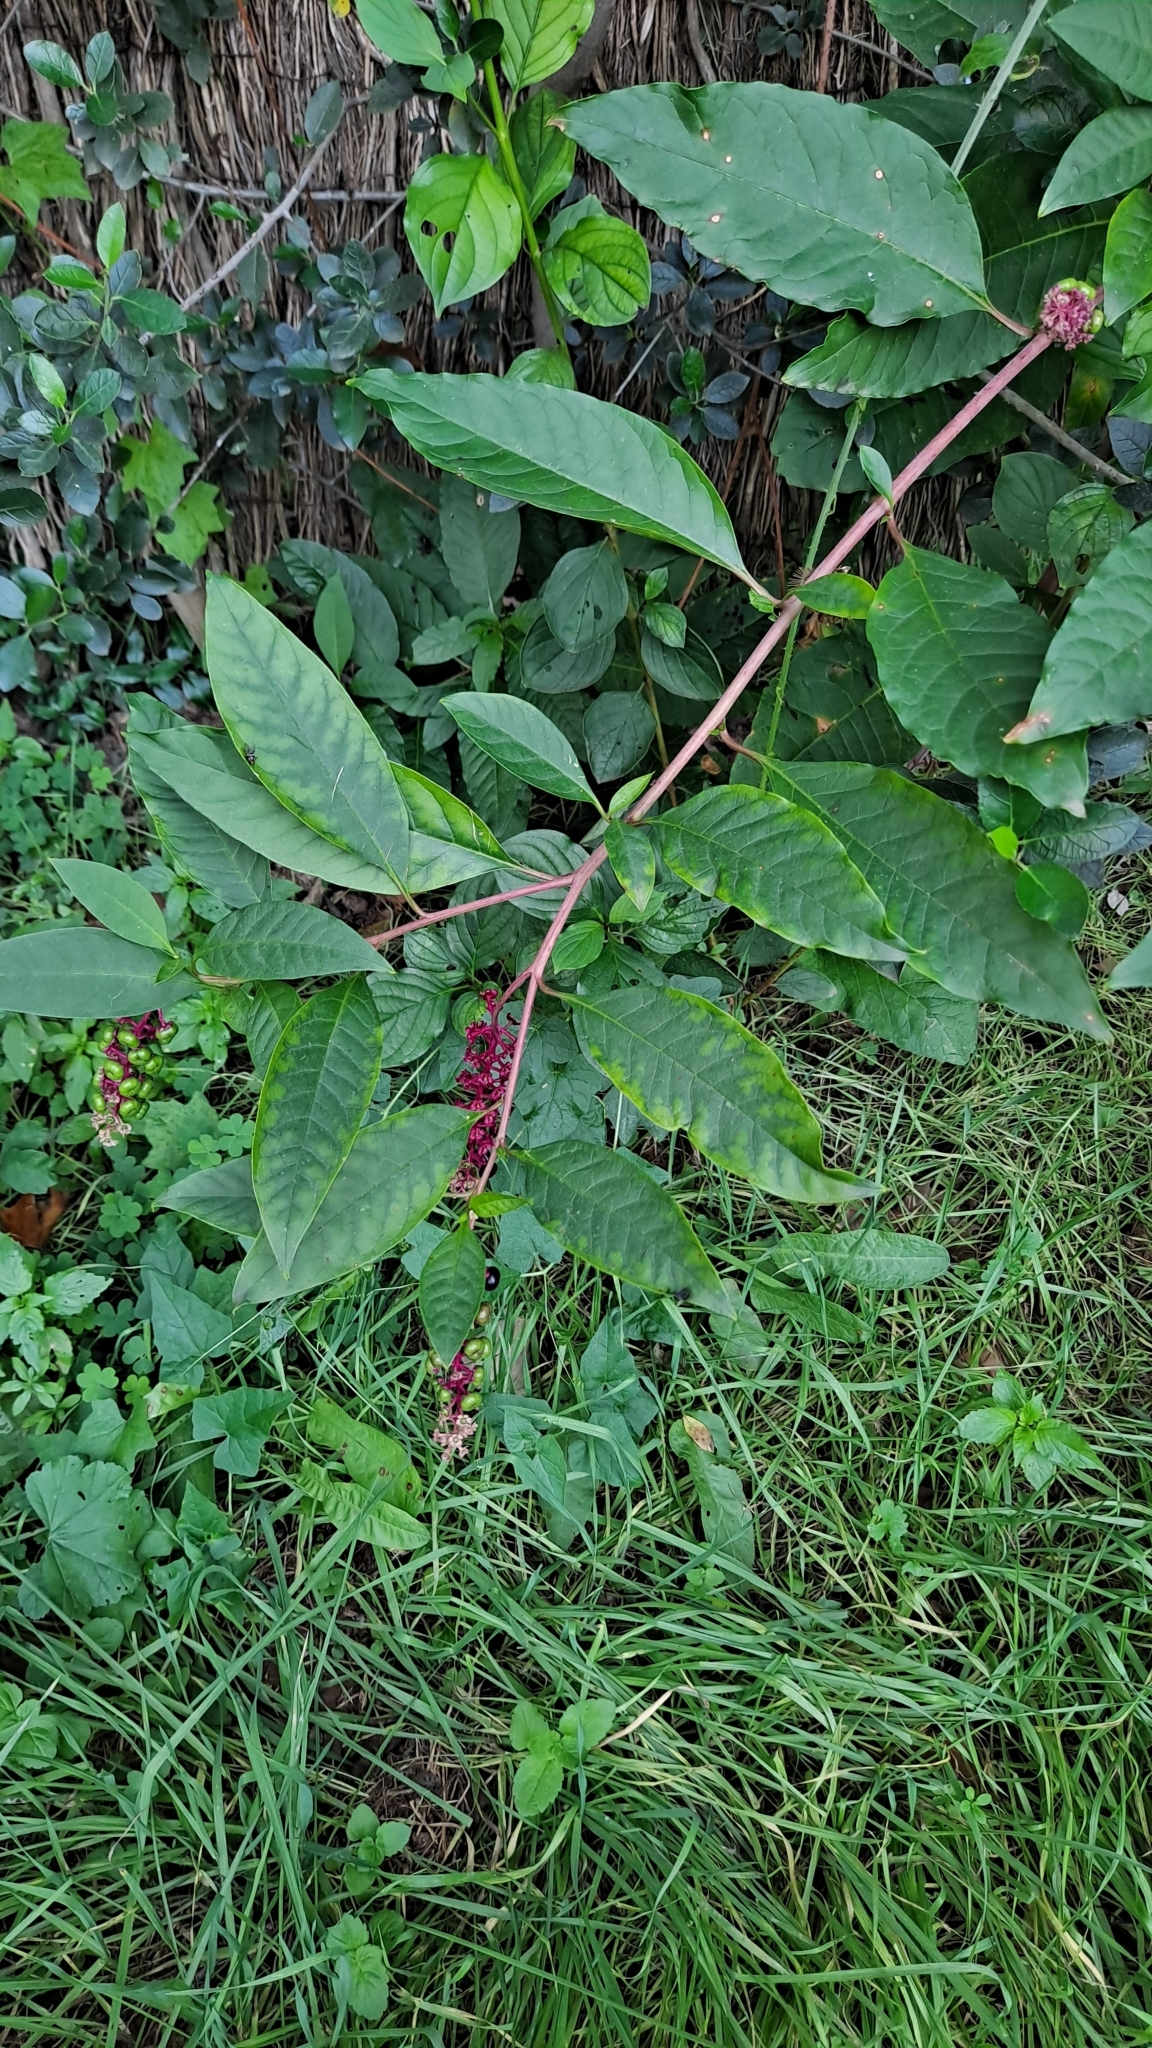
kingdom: Plantae
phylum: Tracheophyta
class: Magnoliopsida
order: Caryophyllales
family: Phytolaccaceae
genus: Phytolacca
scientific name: Phytolacca americana
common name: American pokeweed
